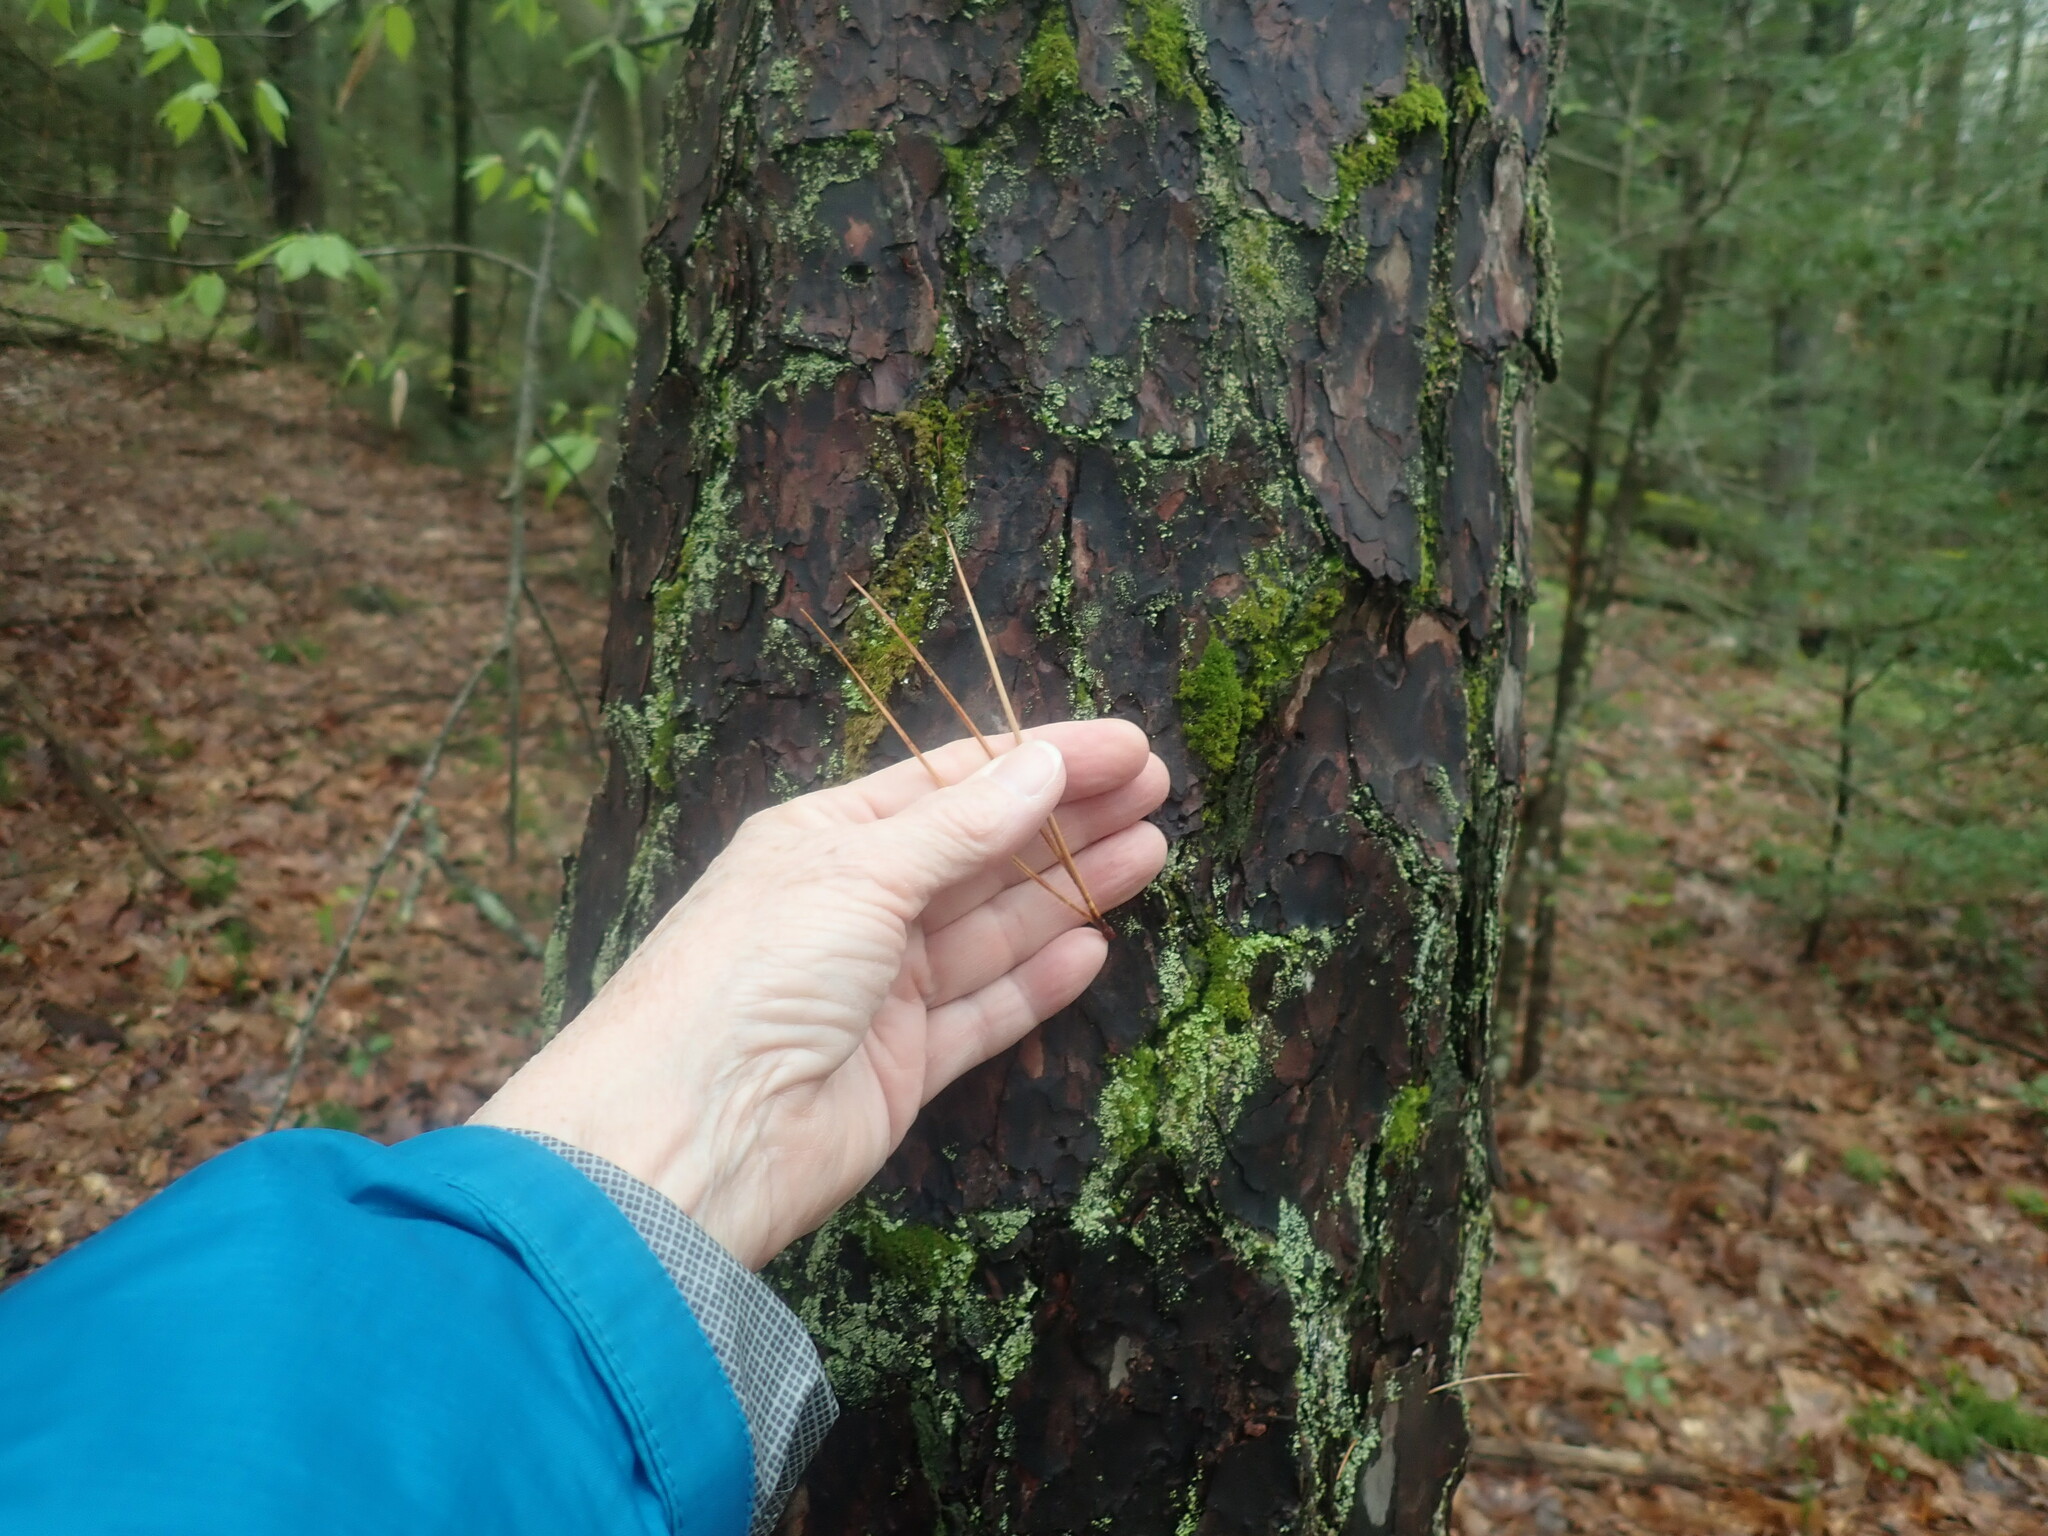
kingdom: Plantae
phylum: Tracheophyta
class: Pinopsida
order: Pinales
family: Pinaceae
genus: Pinus
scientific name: Pinus rigida
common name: Pitch pine
